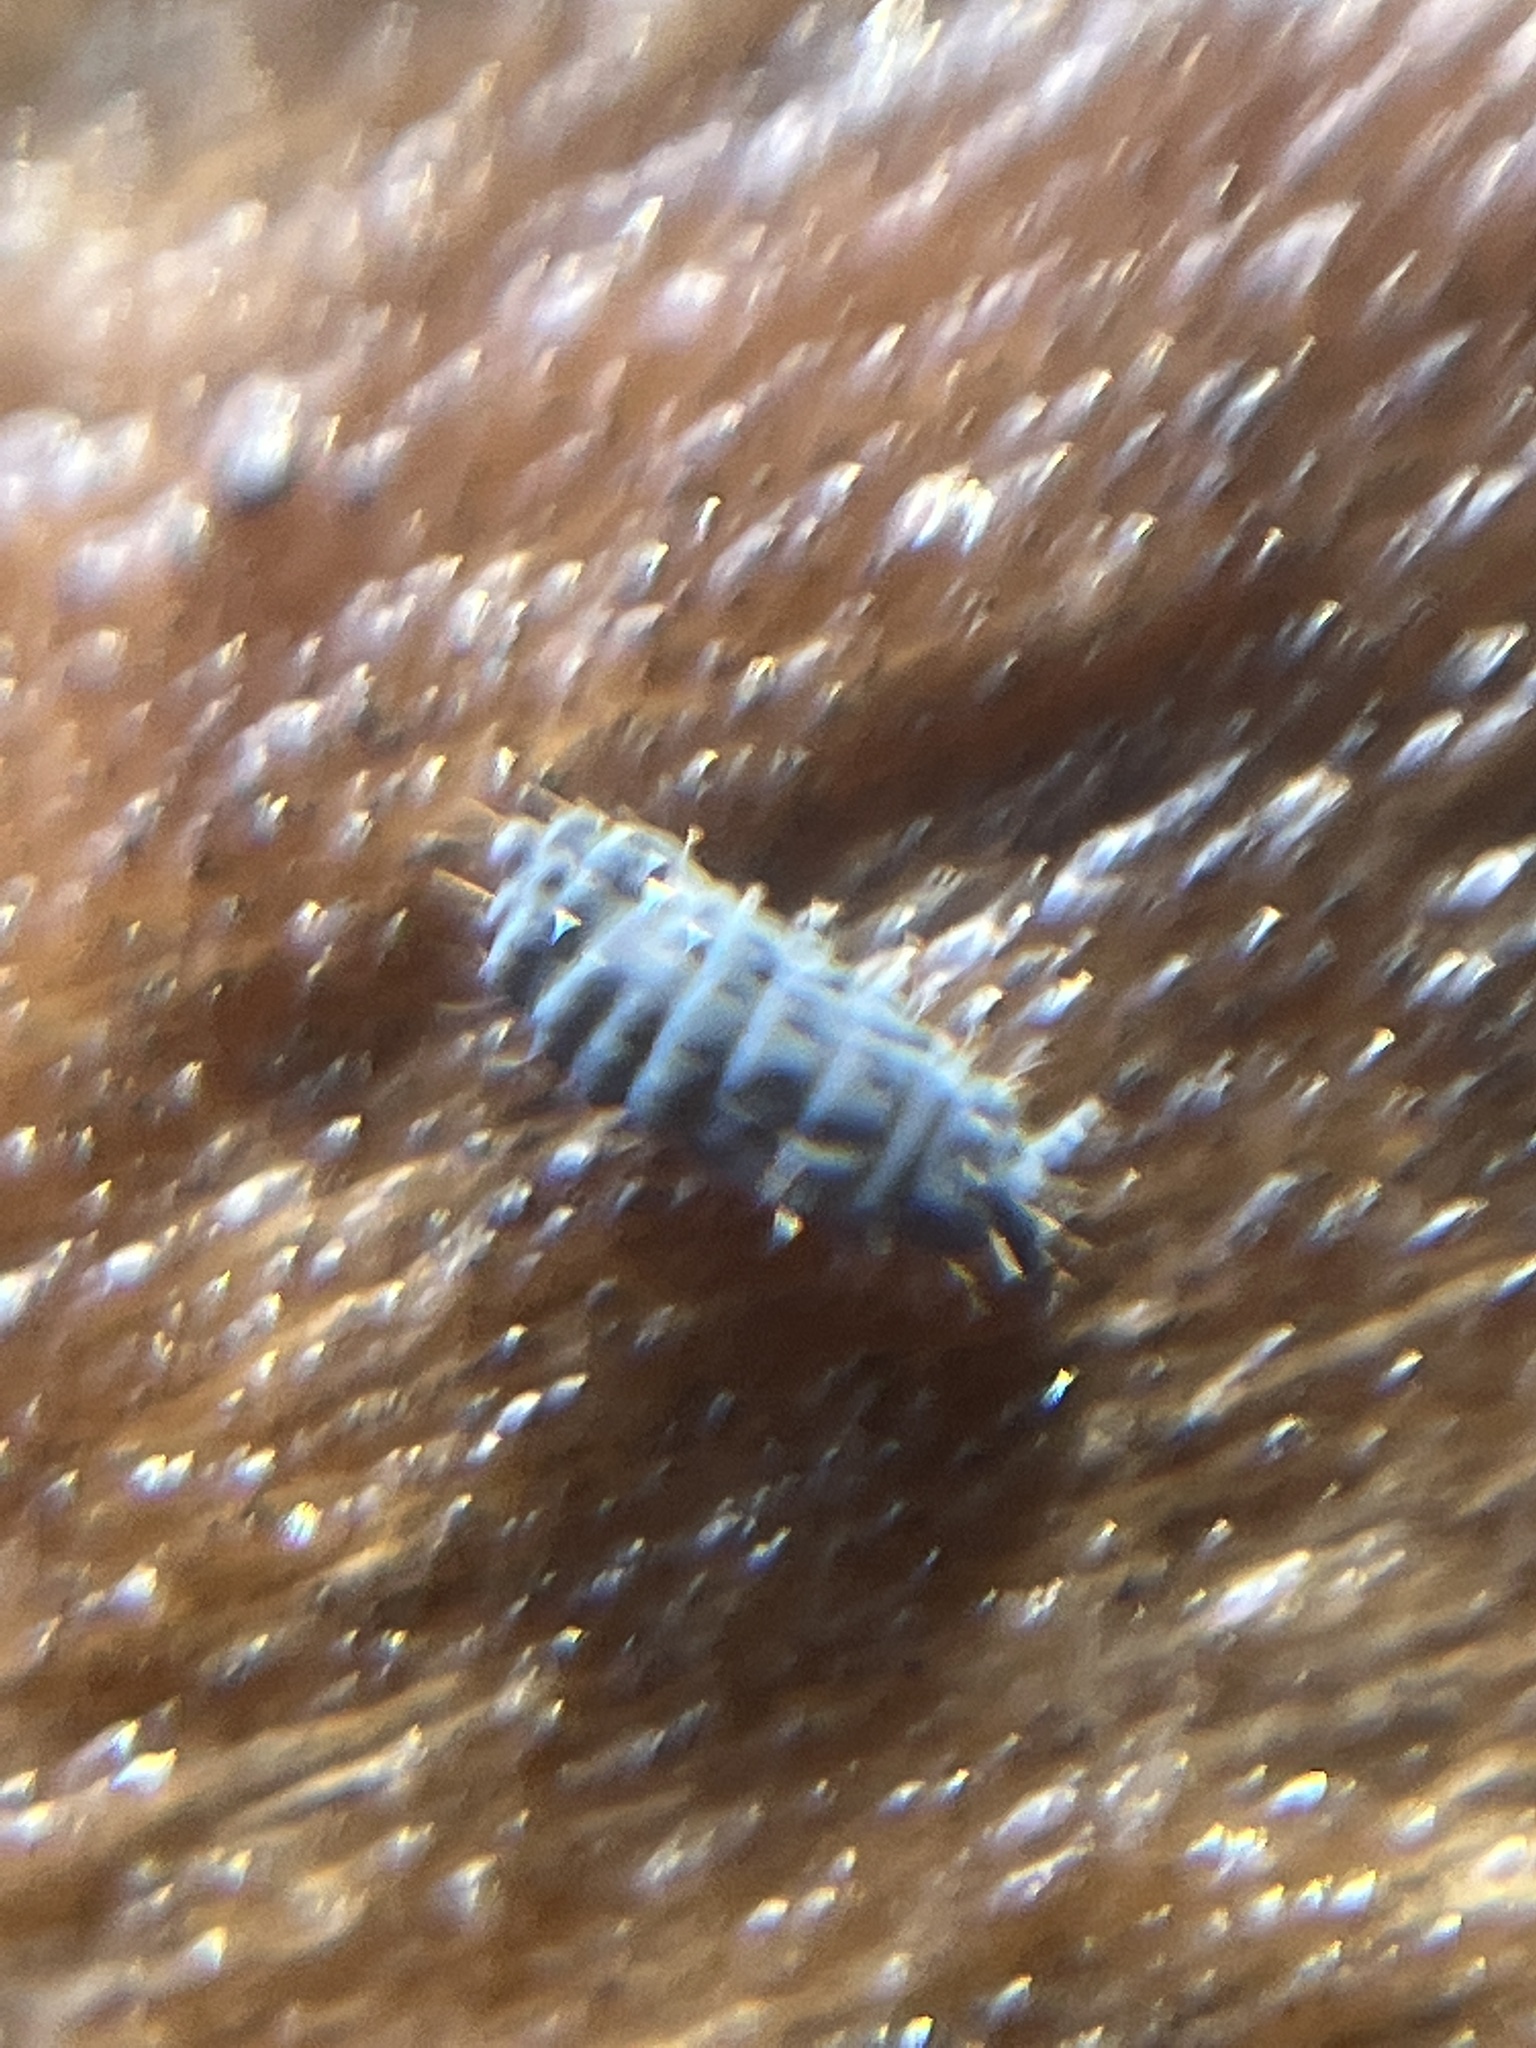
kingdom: Animalia
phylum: Arthropoda
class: Collembola
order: Poduromorpha
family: Neanuridae
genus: Neanura
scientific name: Neanura muscorum
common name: Springtail
